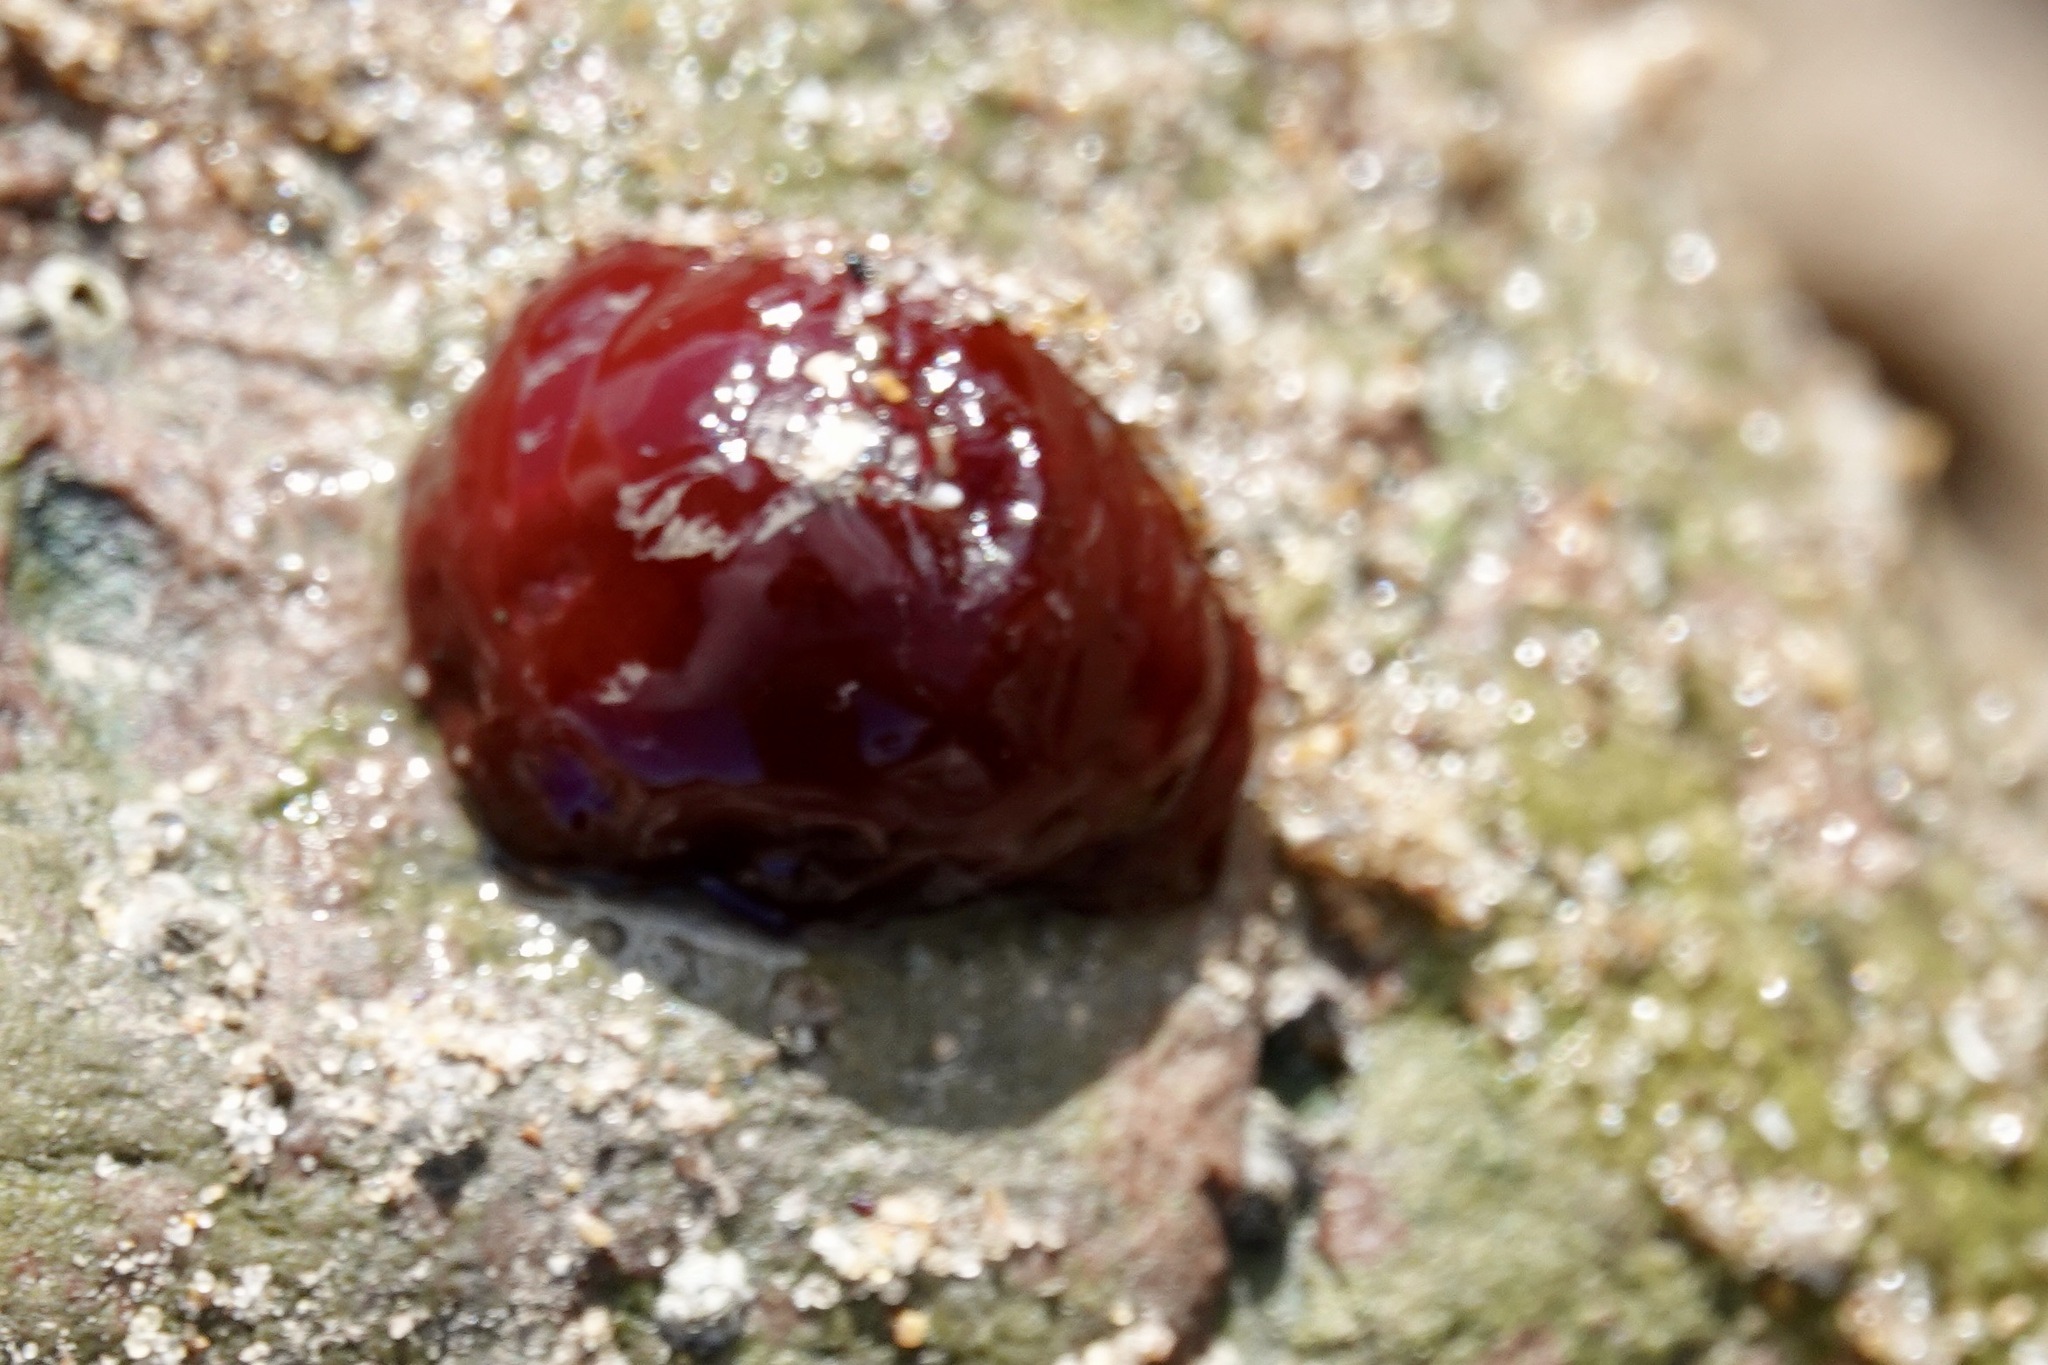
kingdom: Animalia
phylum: Cnidaria
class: Anthozoa
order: Actiniaria
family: Actiniidae
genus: Actinia
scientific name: Actinia equina
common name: Beadlet anemone
